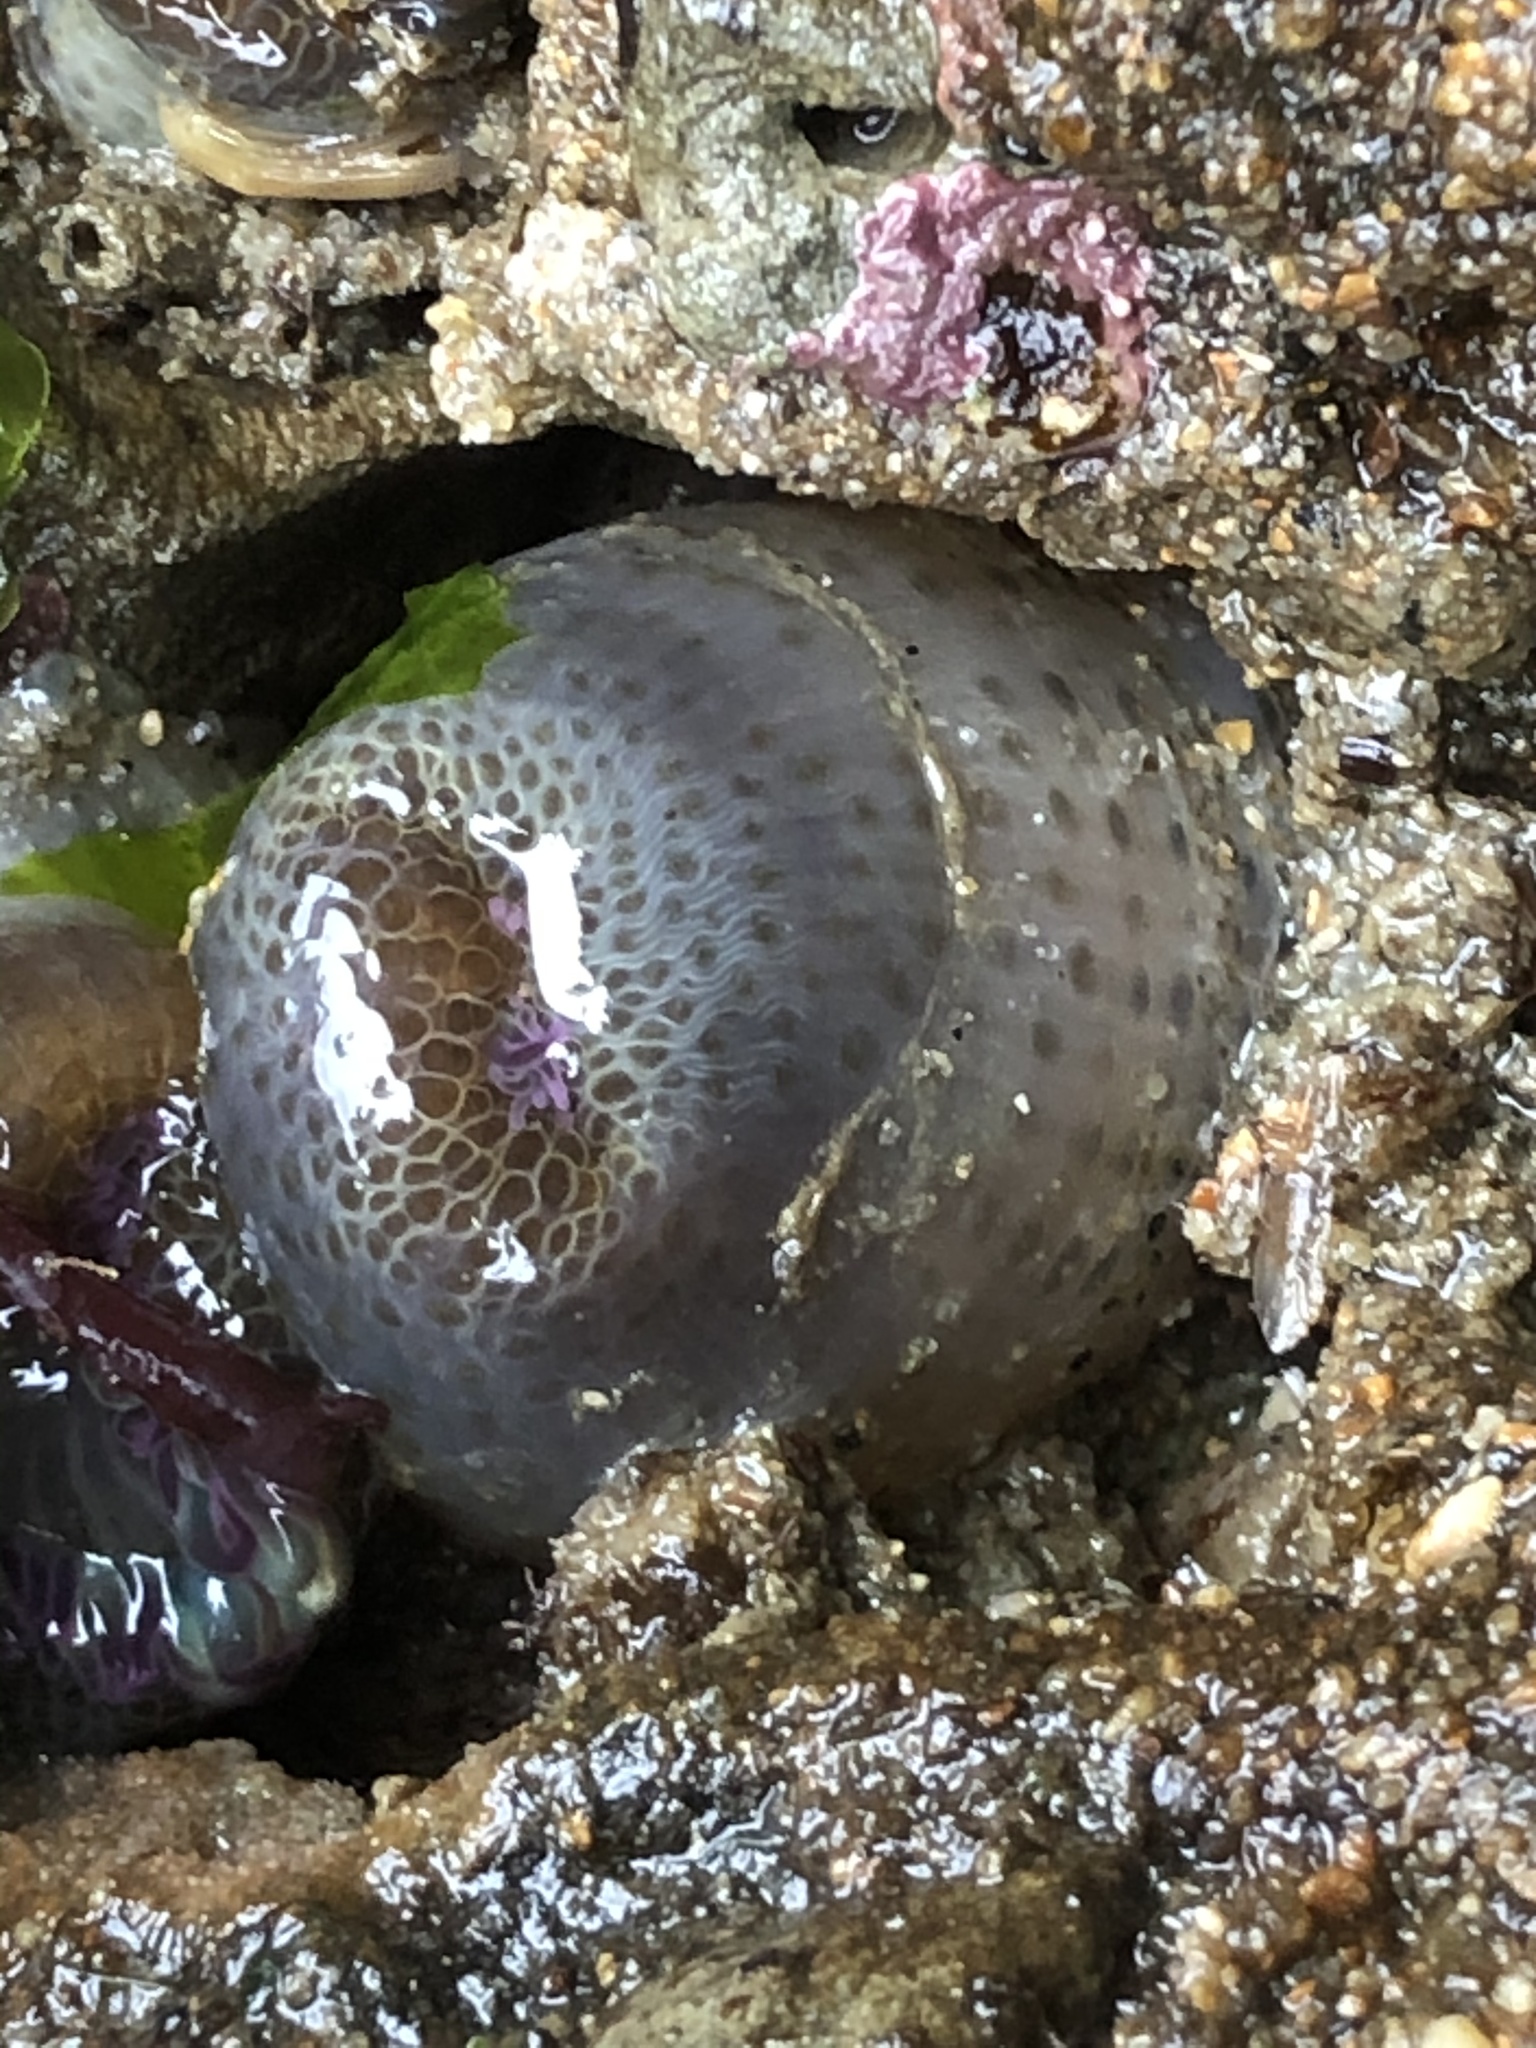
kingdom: Animalia
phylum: Cnidaria
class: Anthozoa
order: Actiniaria
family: Actiniidae
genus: Anthopleura
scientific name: Anthopleura elegantissima
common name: Clonal anemone
